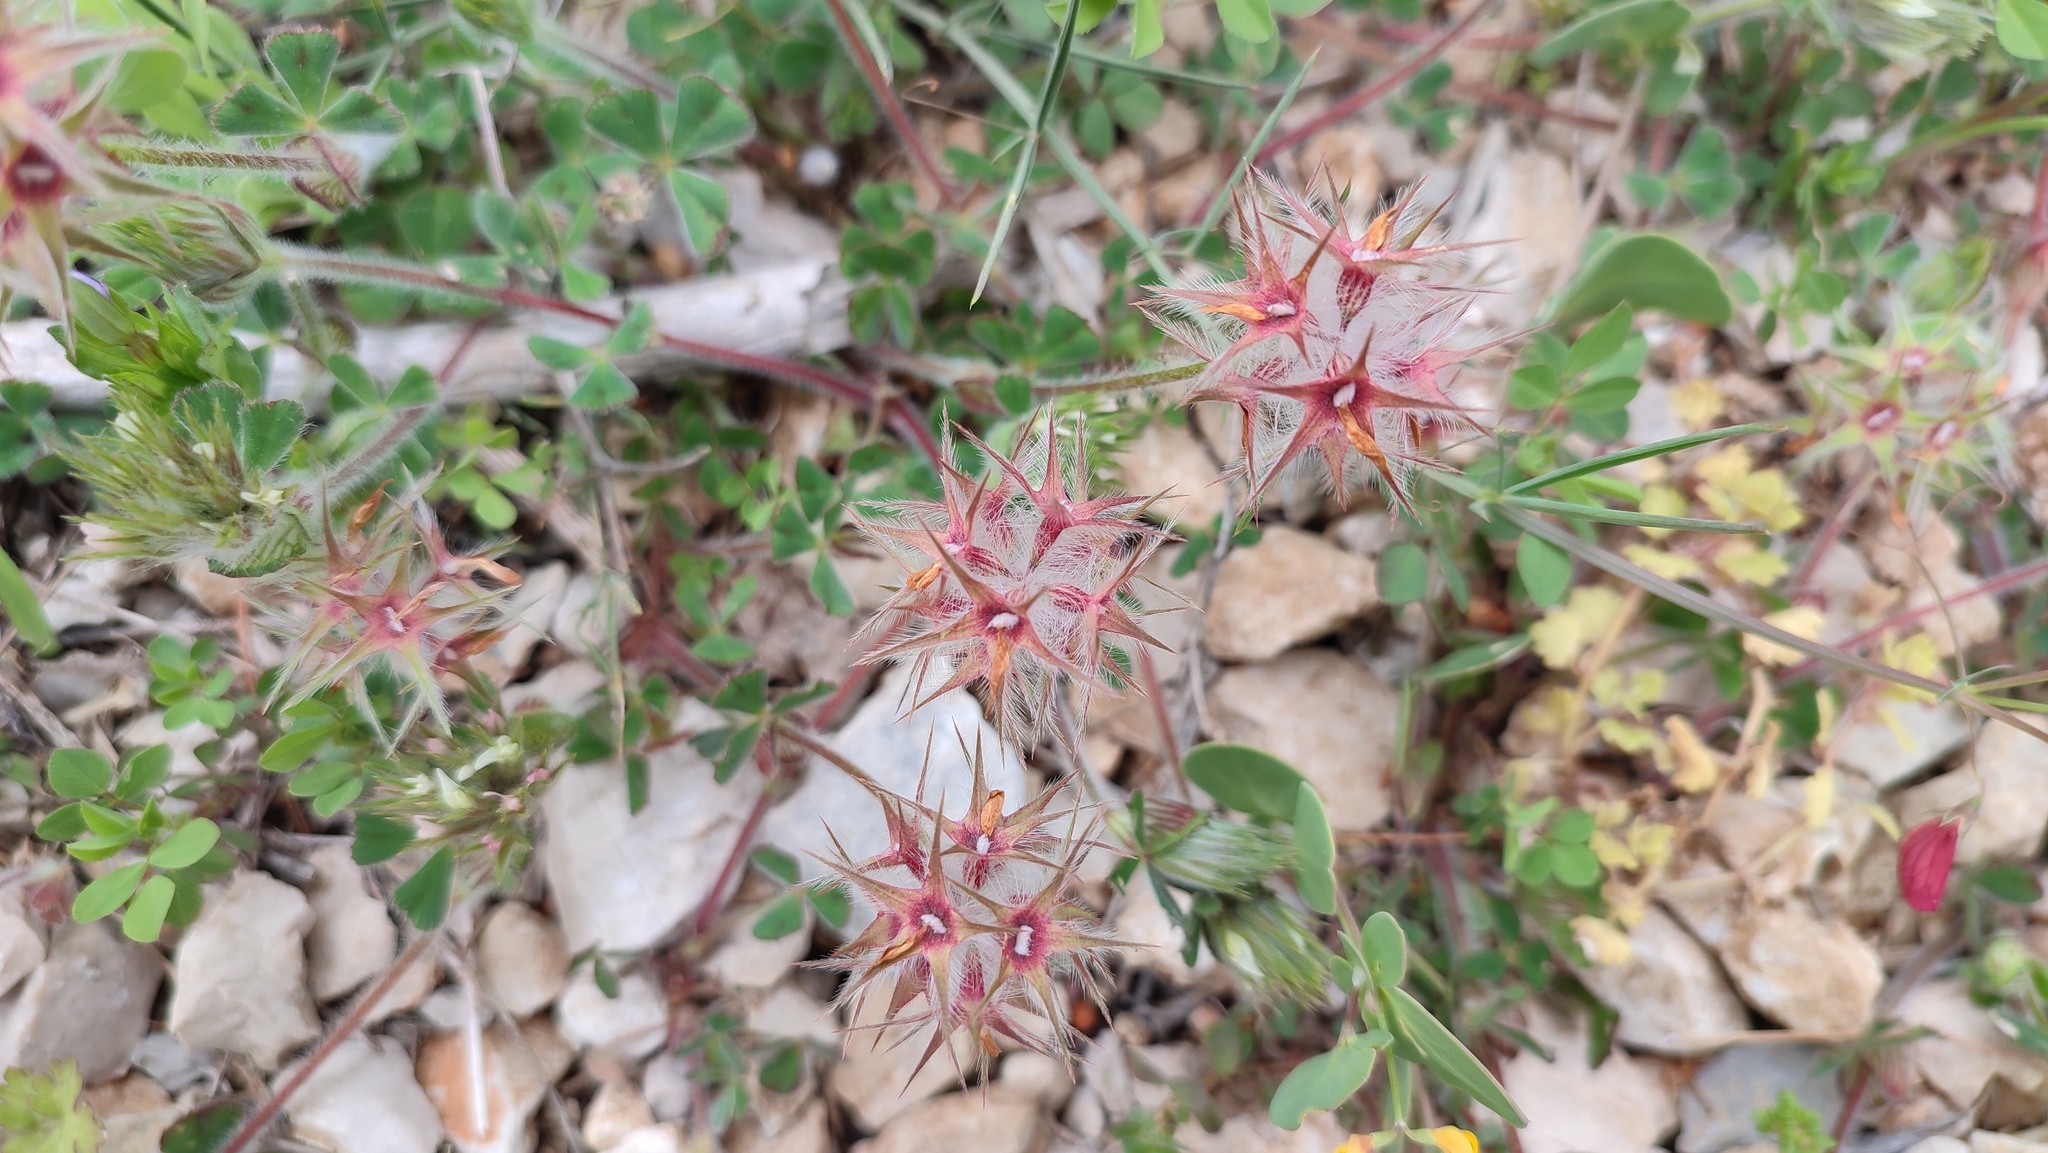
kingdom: Plantae
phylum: Tracheophyta
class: Magnoliopsida
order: Fabales
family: Fabaceae
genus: Trifolium
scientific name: Trifolium stellatum
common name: Starry clover
